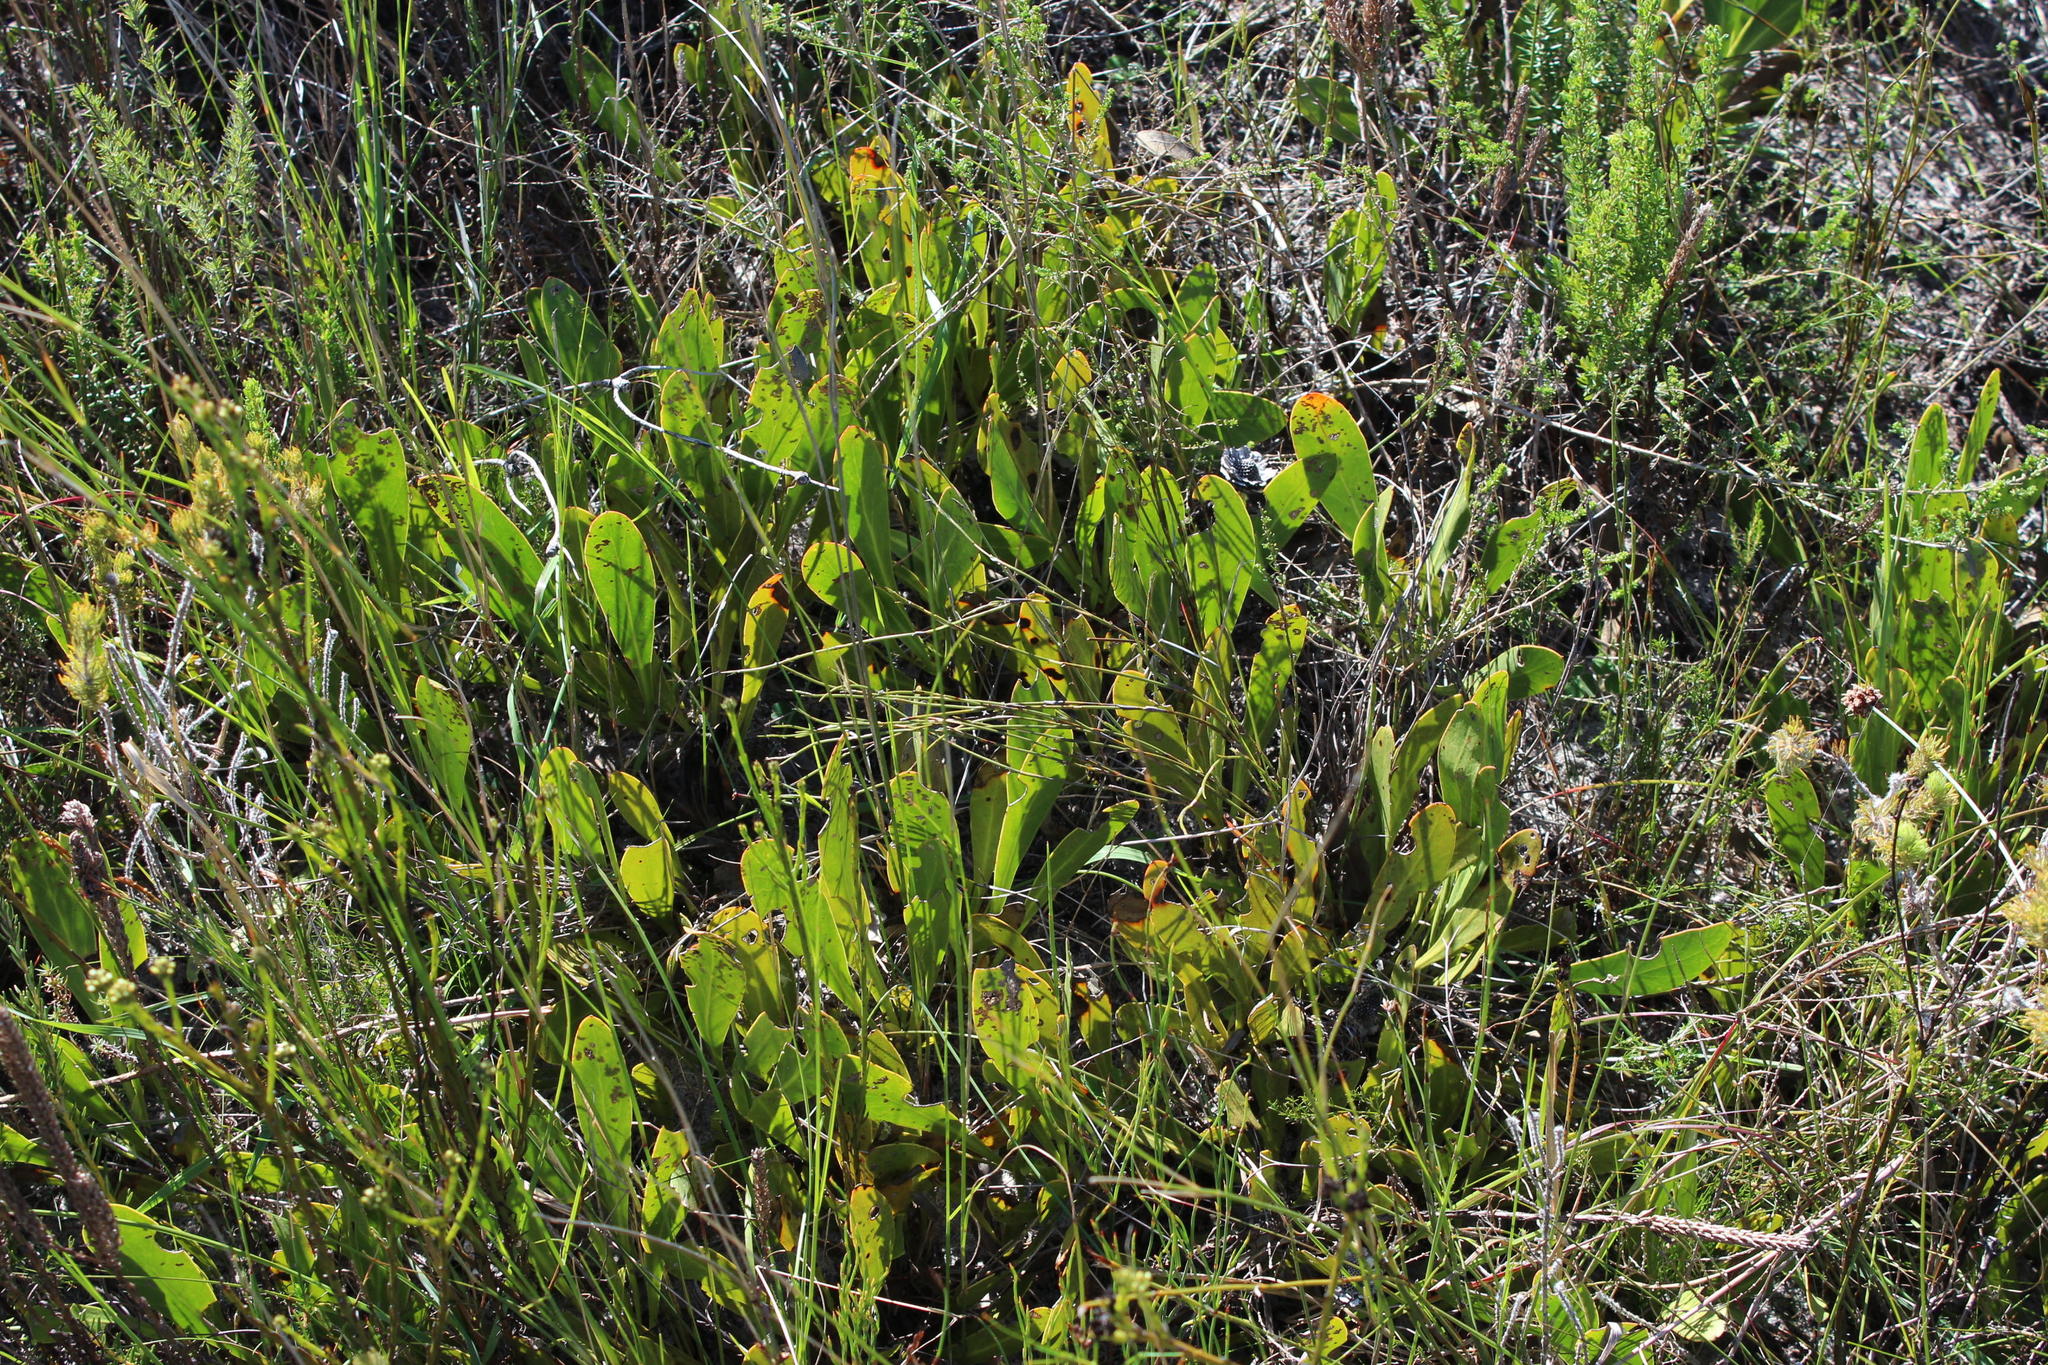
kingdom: Plantae
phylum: Tracheophyta
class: Magnoliopsida
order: Proteales
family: Proteaceae
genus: Protea
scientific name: Protea acaulos
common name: Common ground sugarbush
